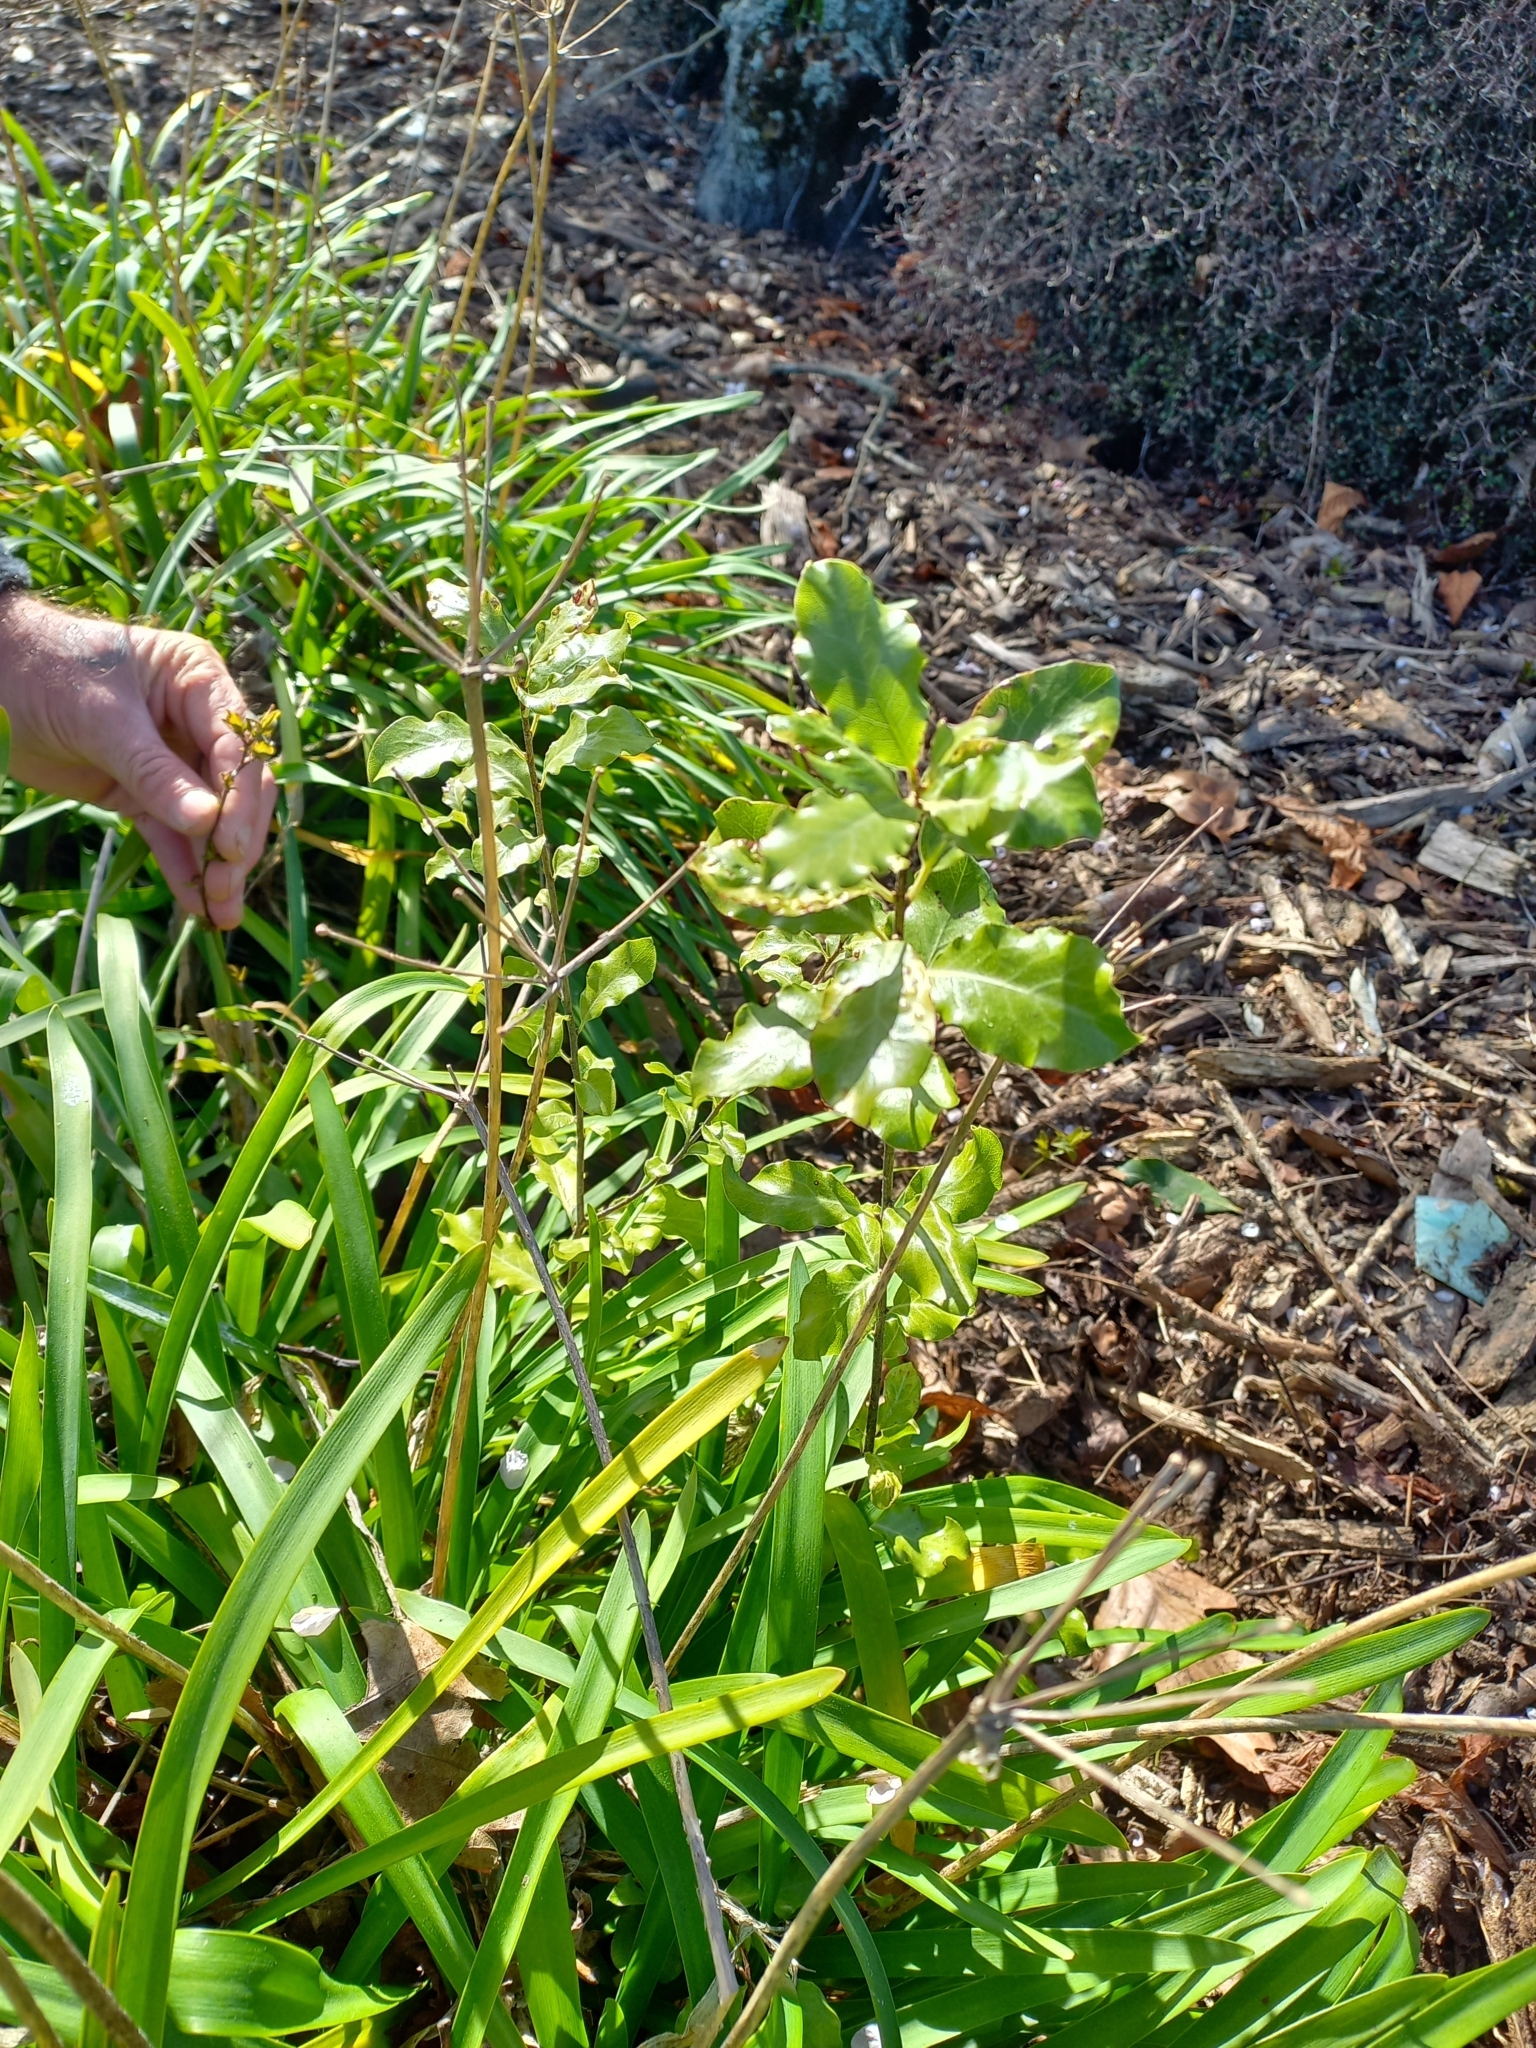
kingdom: Plantae
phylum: Tracheophyta
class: Magnoliopsida
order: Apiales
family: Pittosporaceae
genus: Pittosporum
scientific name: Pittosporum tenuifolium
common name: Kohuhu
